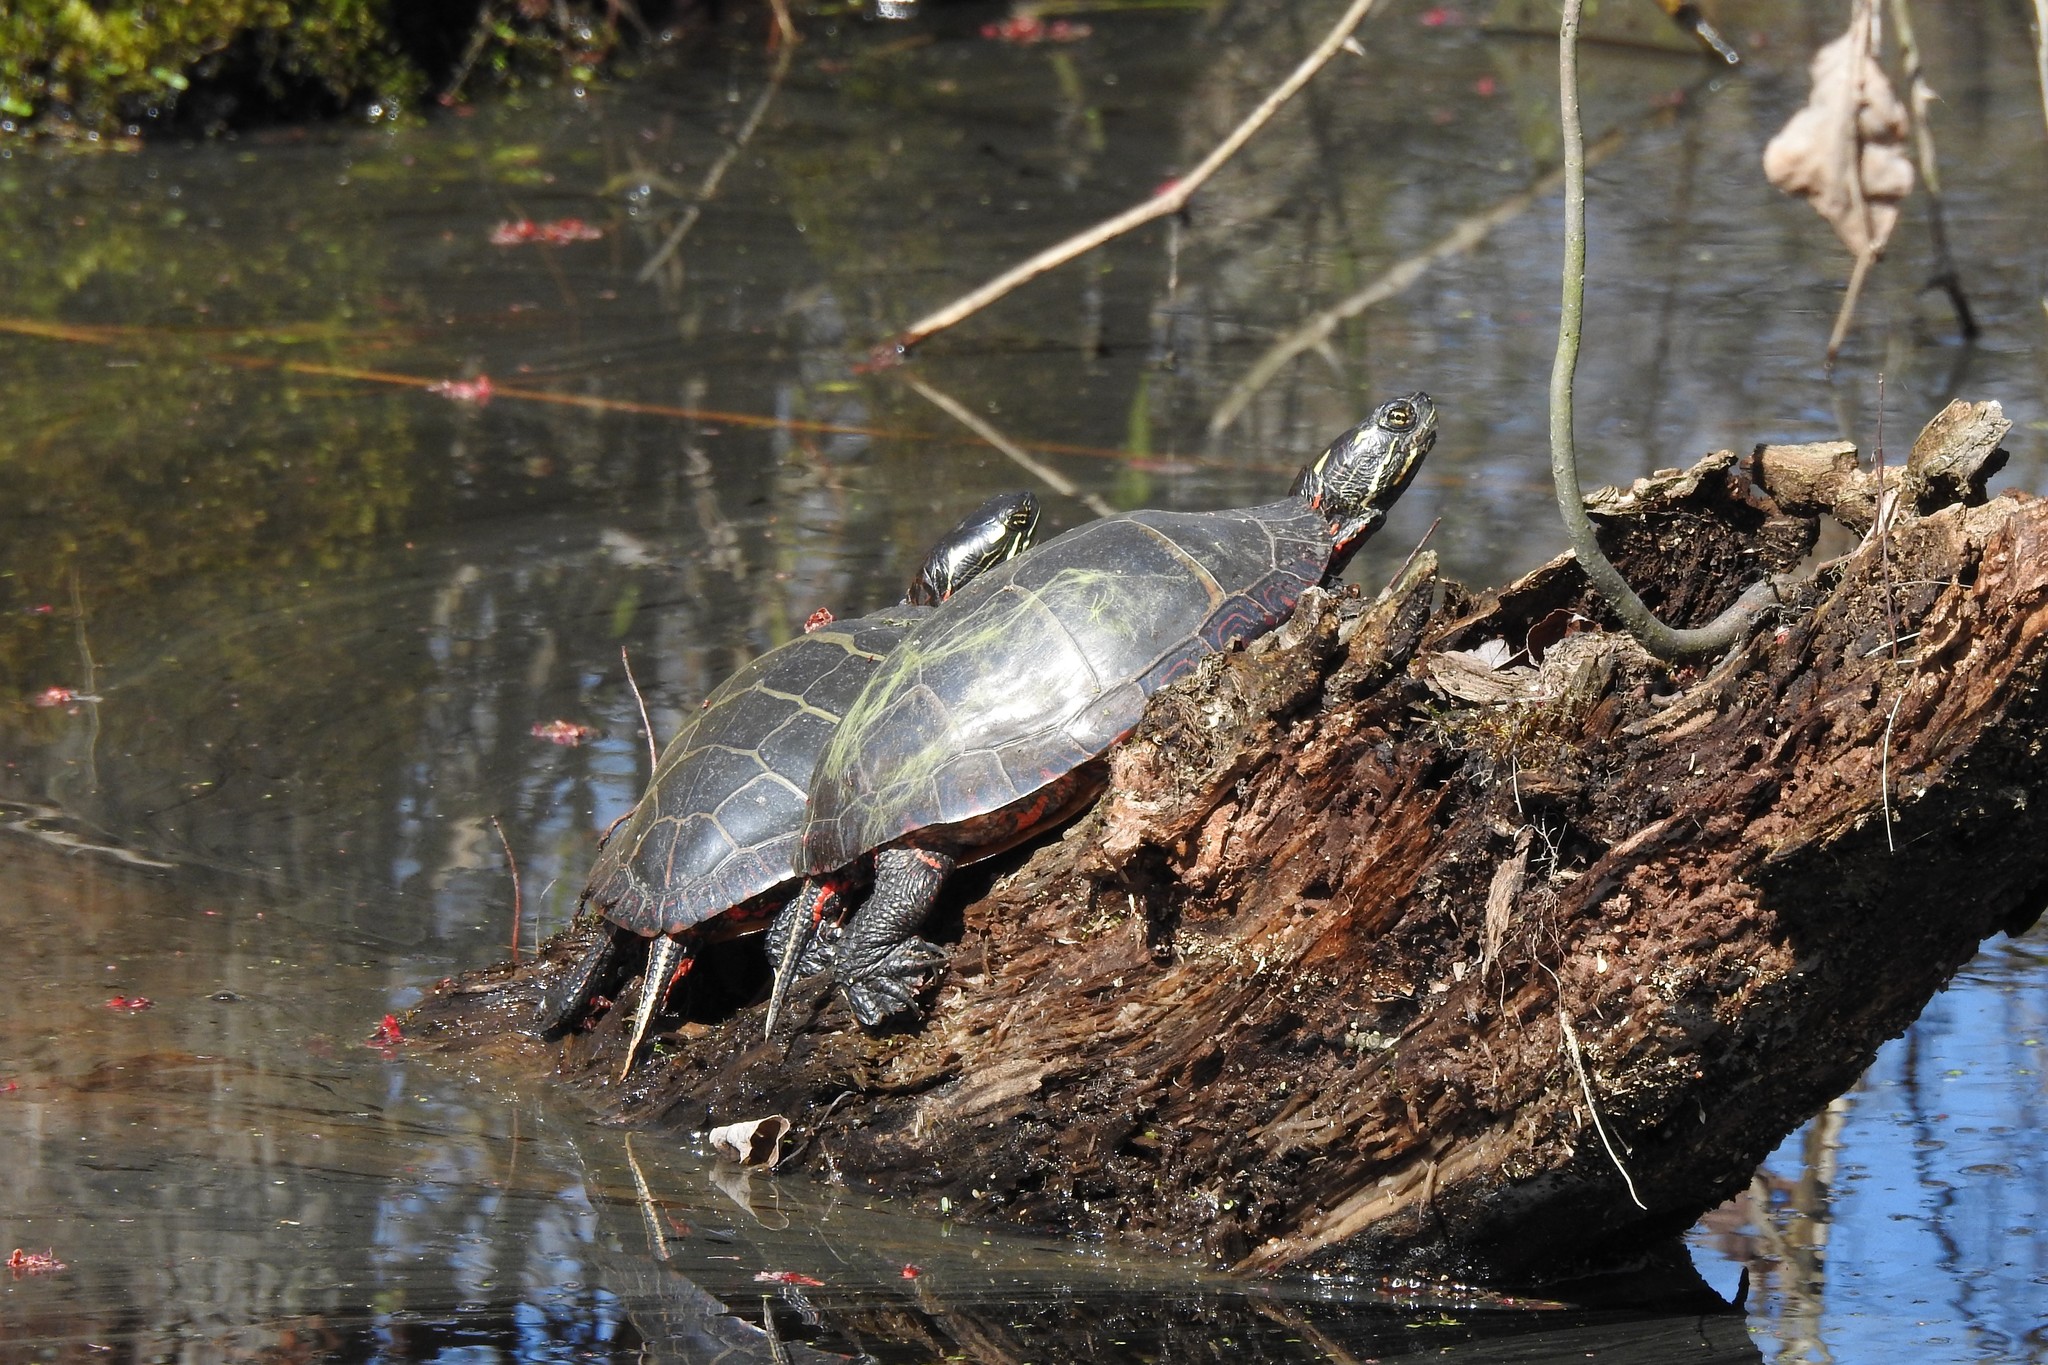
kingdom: Animalia
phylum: Chordata
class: Testudines
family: Emydidae
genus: Chrysemys
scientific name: Chrysemys picta
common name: Painted turtle
